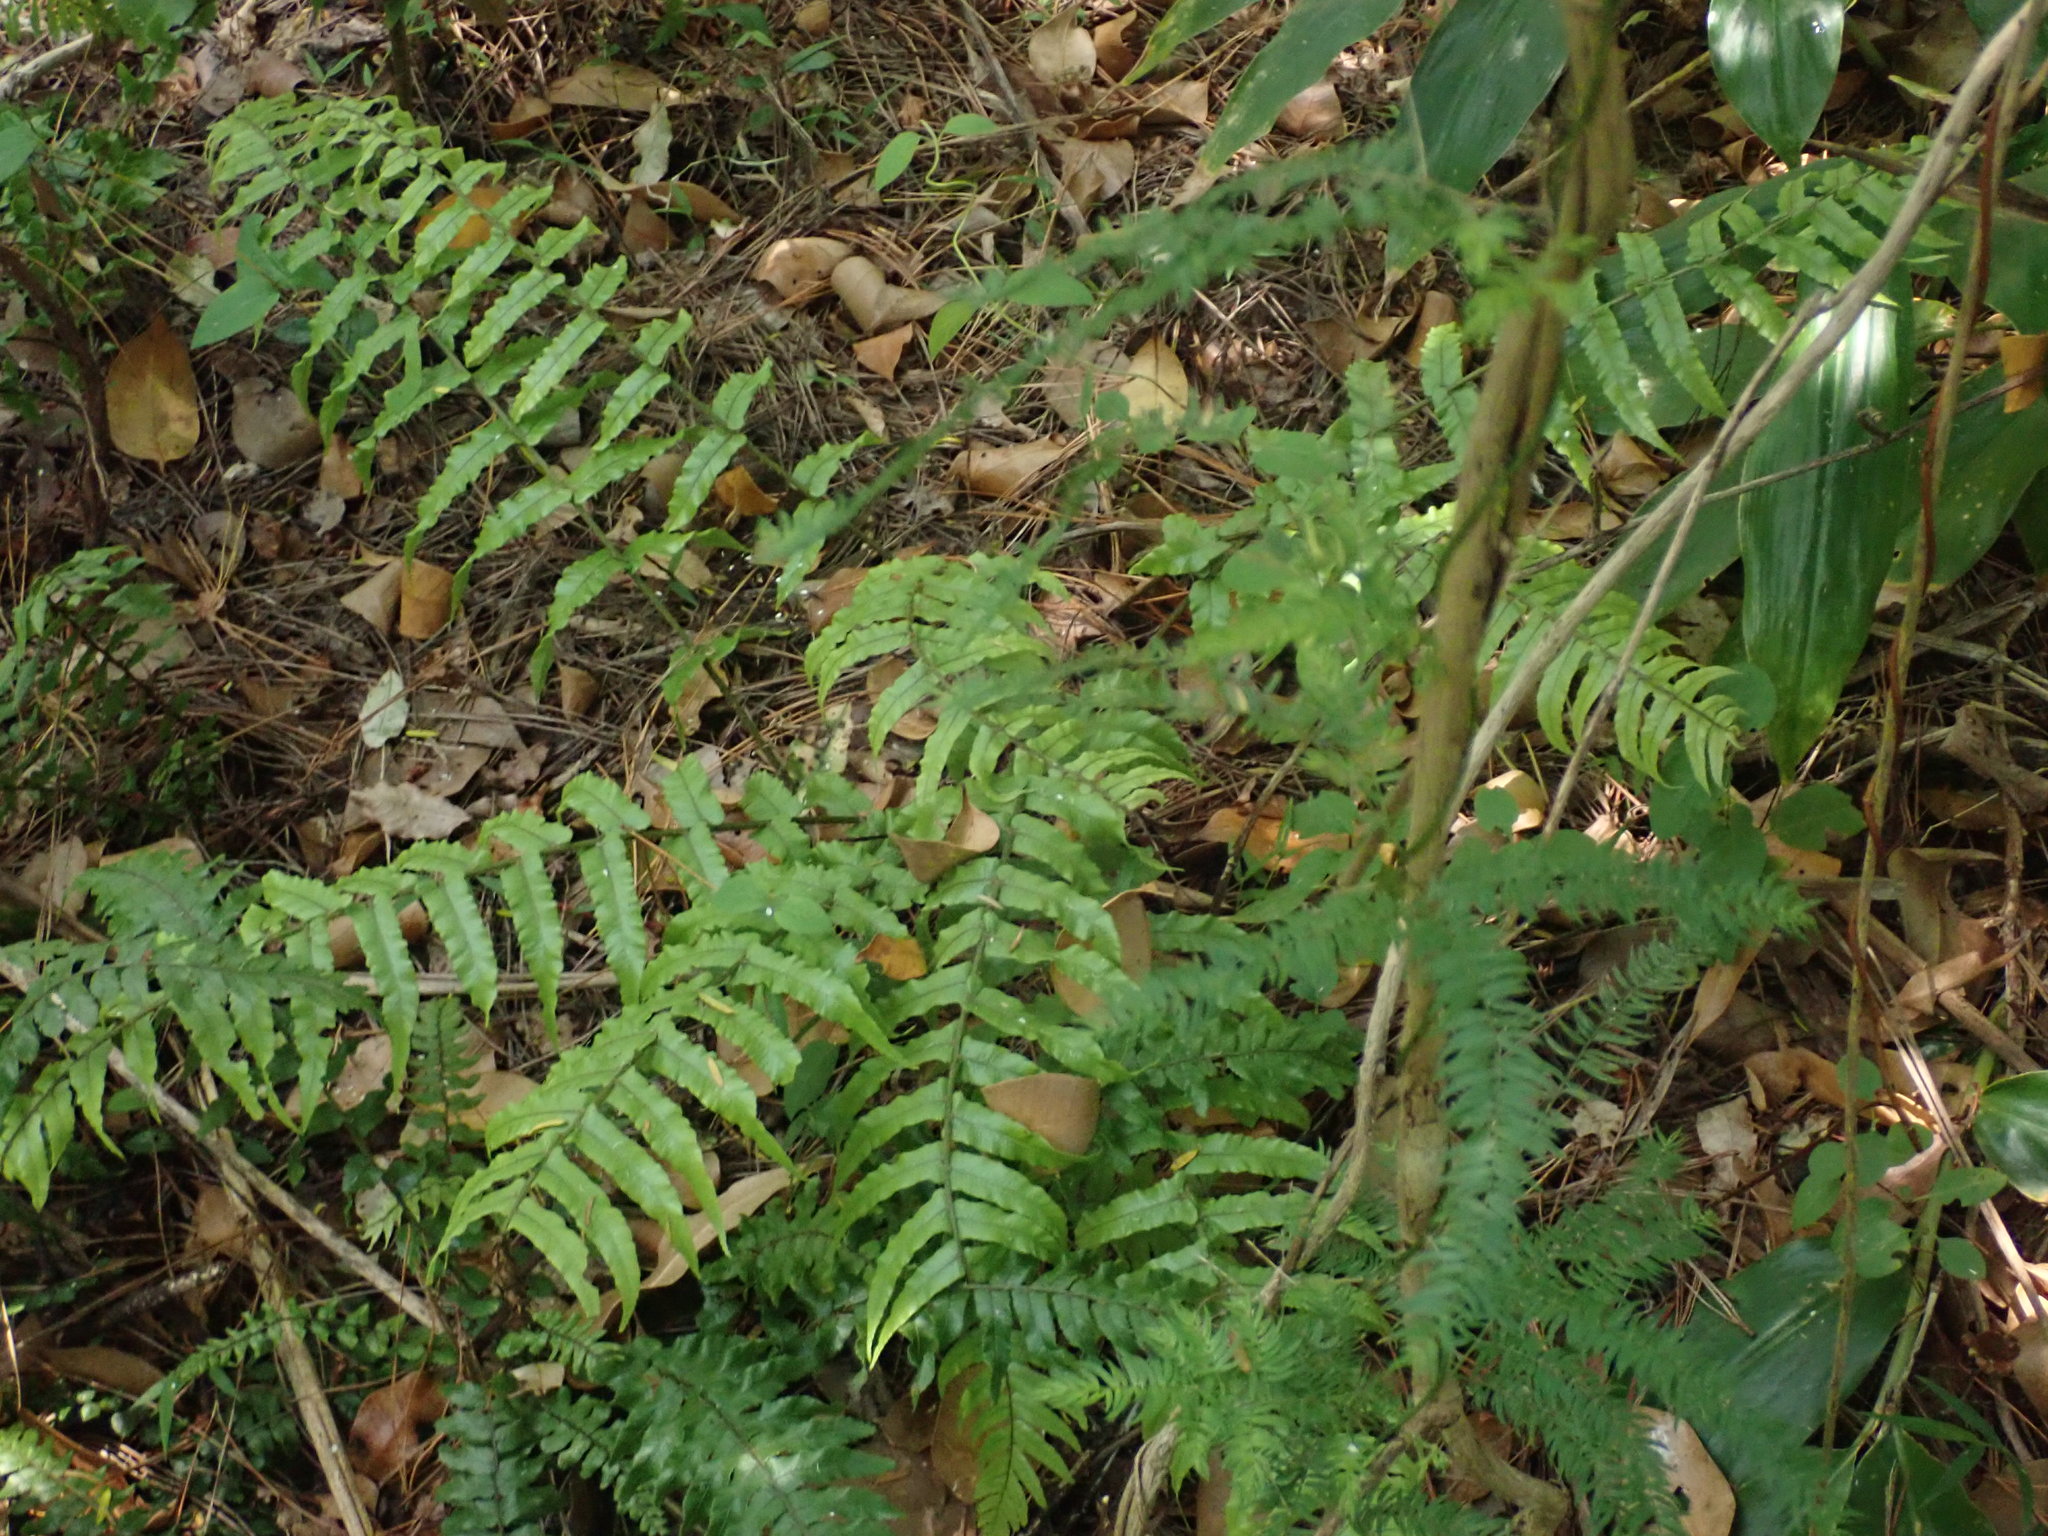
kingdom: Plantae
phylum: Tracheophyta
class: Polypodiopsida
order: Polypodiales
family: Blechnaceae
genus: Icarus
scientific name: Icarus filiformis
